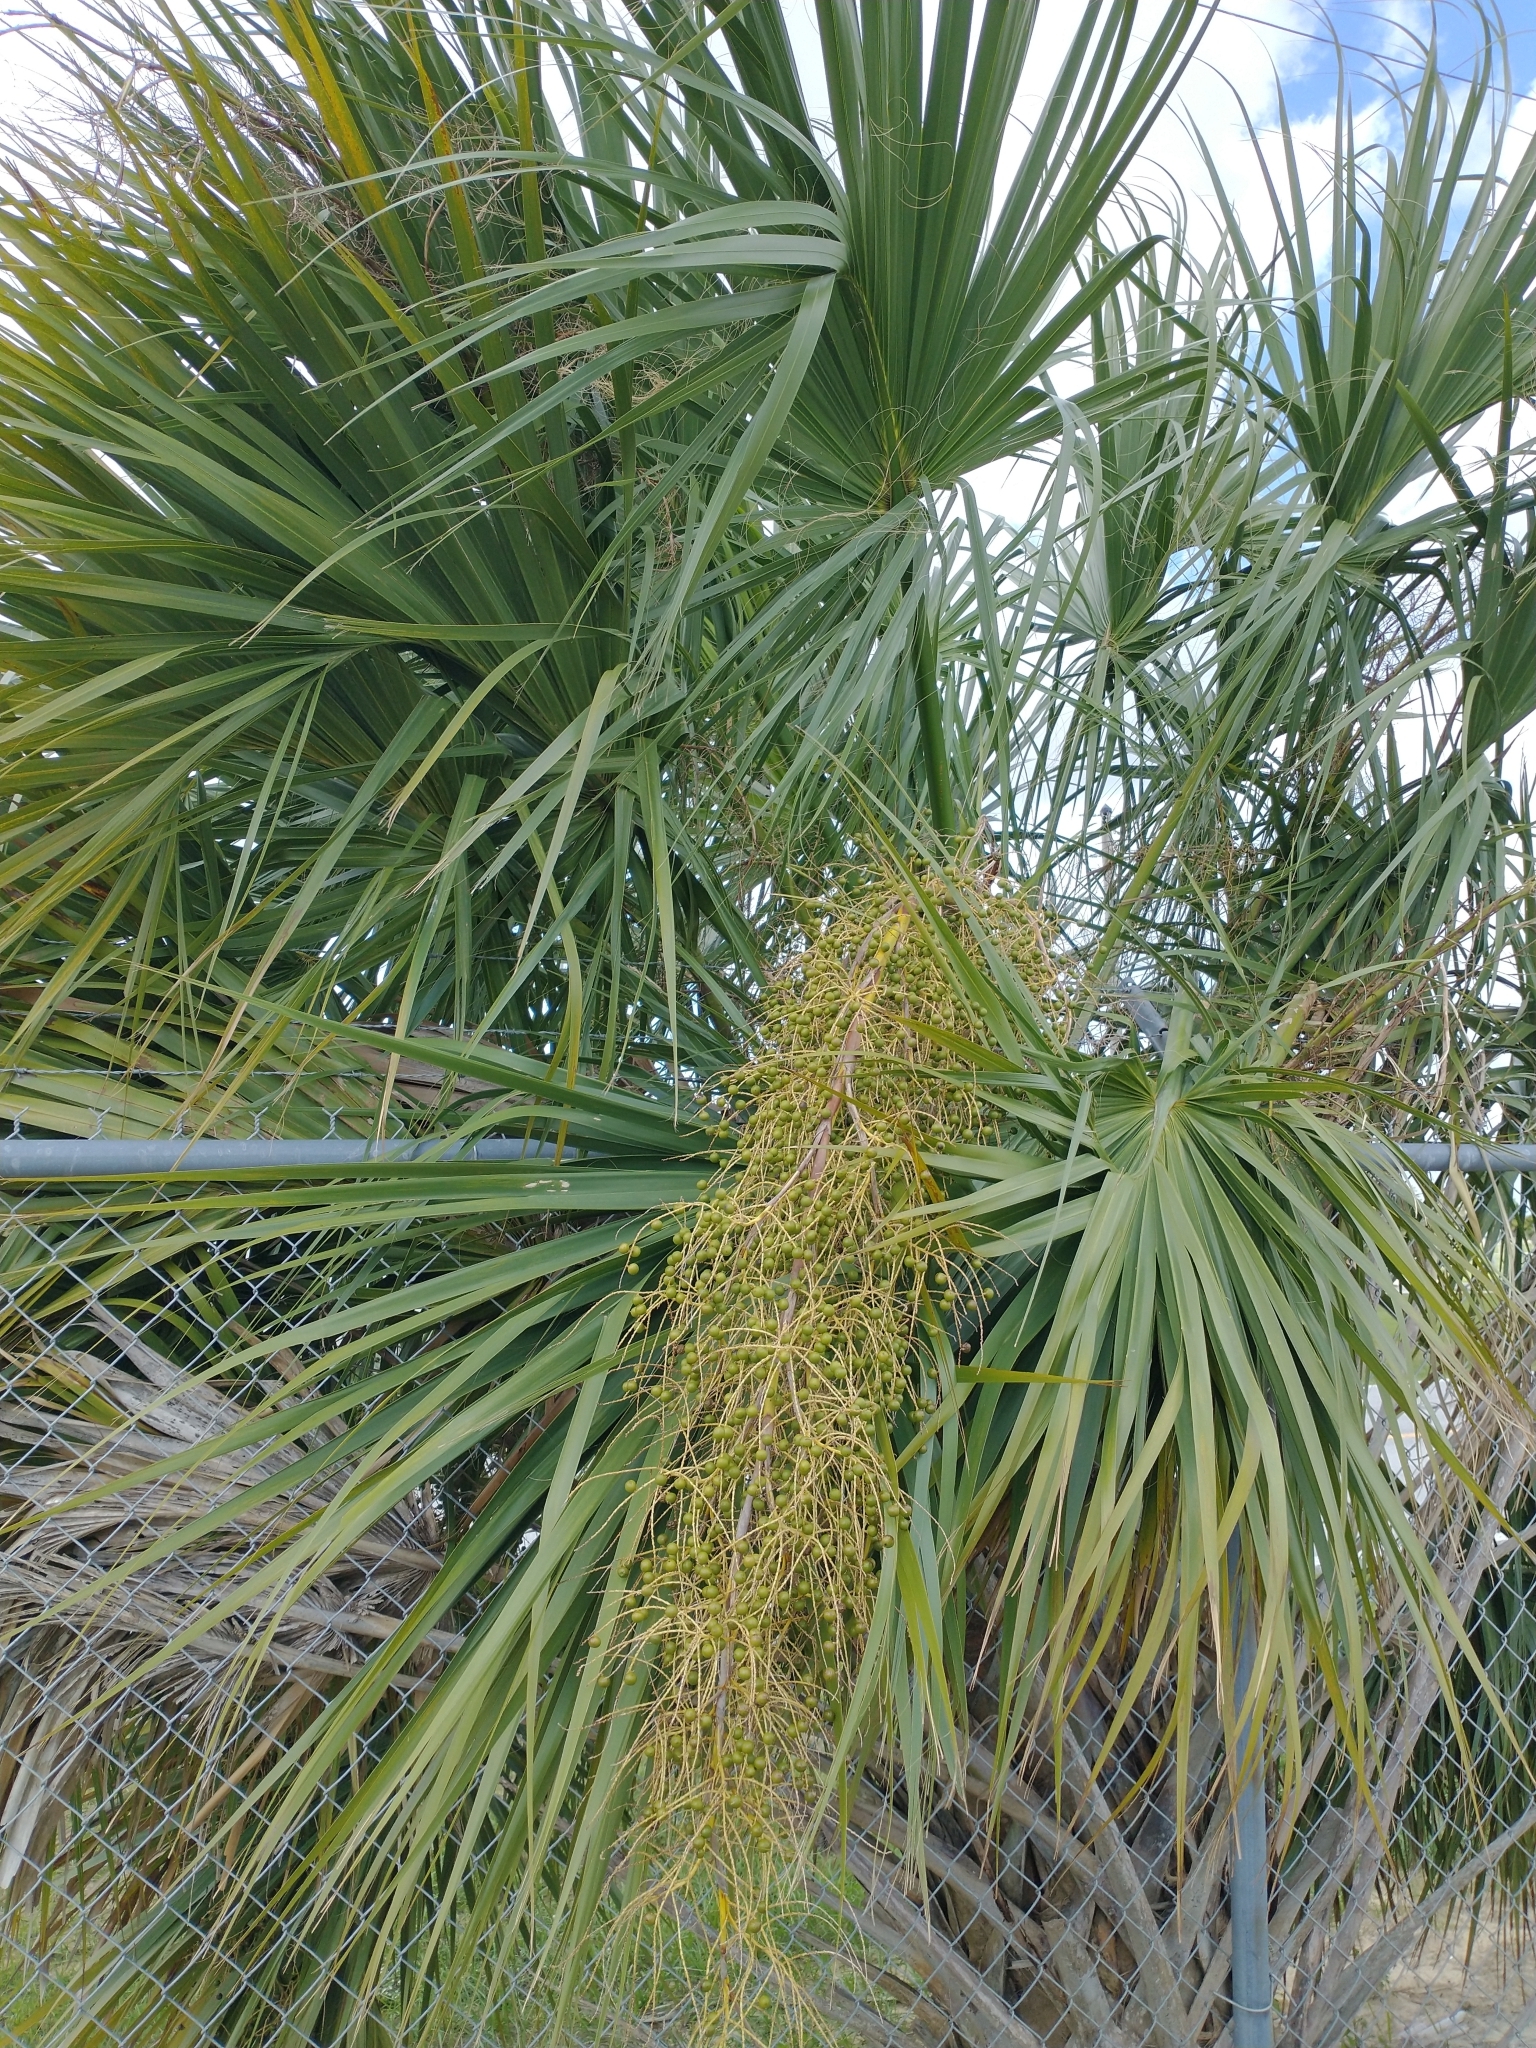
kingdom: Plantae
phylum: Tracheophyta
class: Liliopsida
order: Arecales
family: Arecaceae
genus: Sabal
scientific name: Sabal palmetto
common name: Blue palmetto
